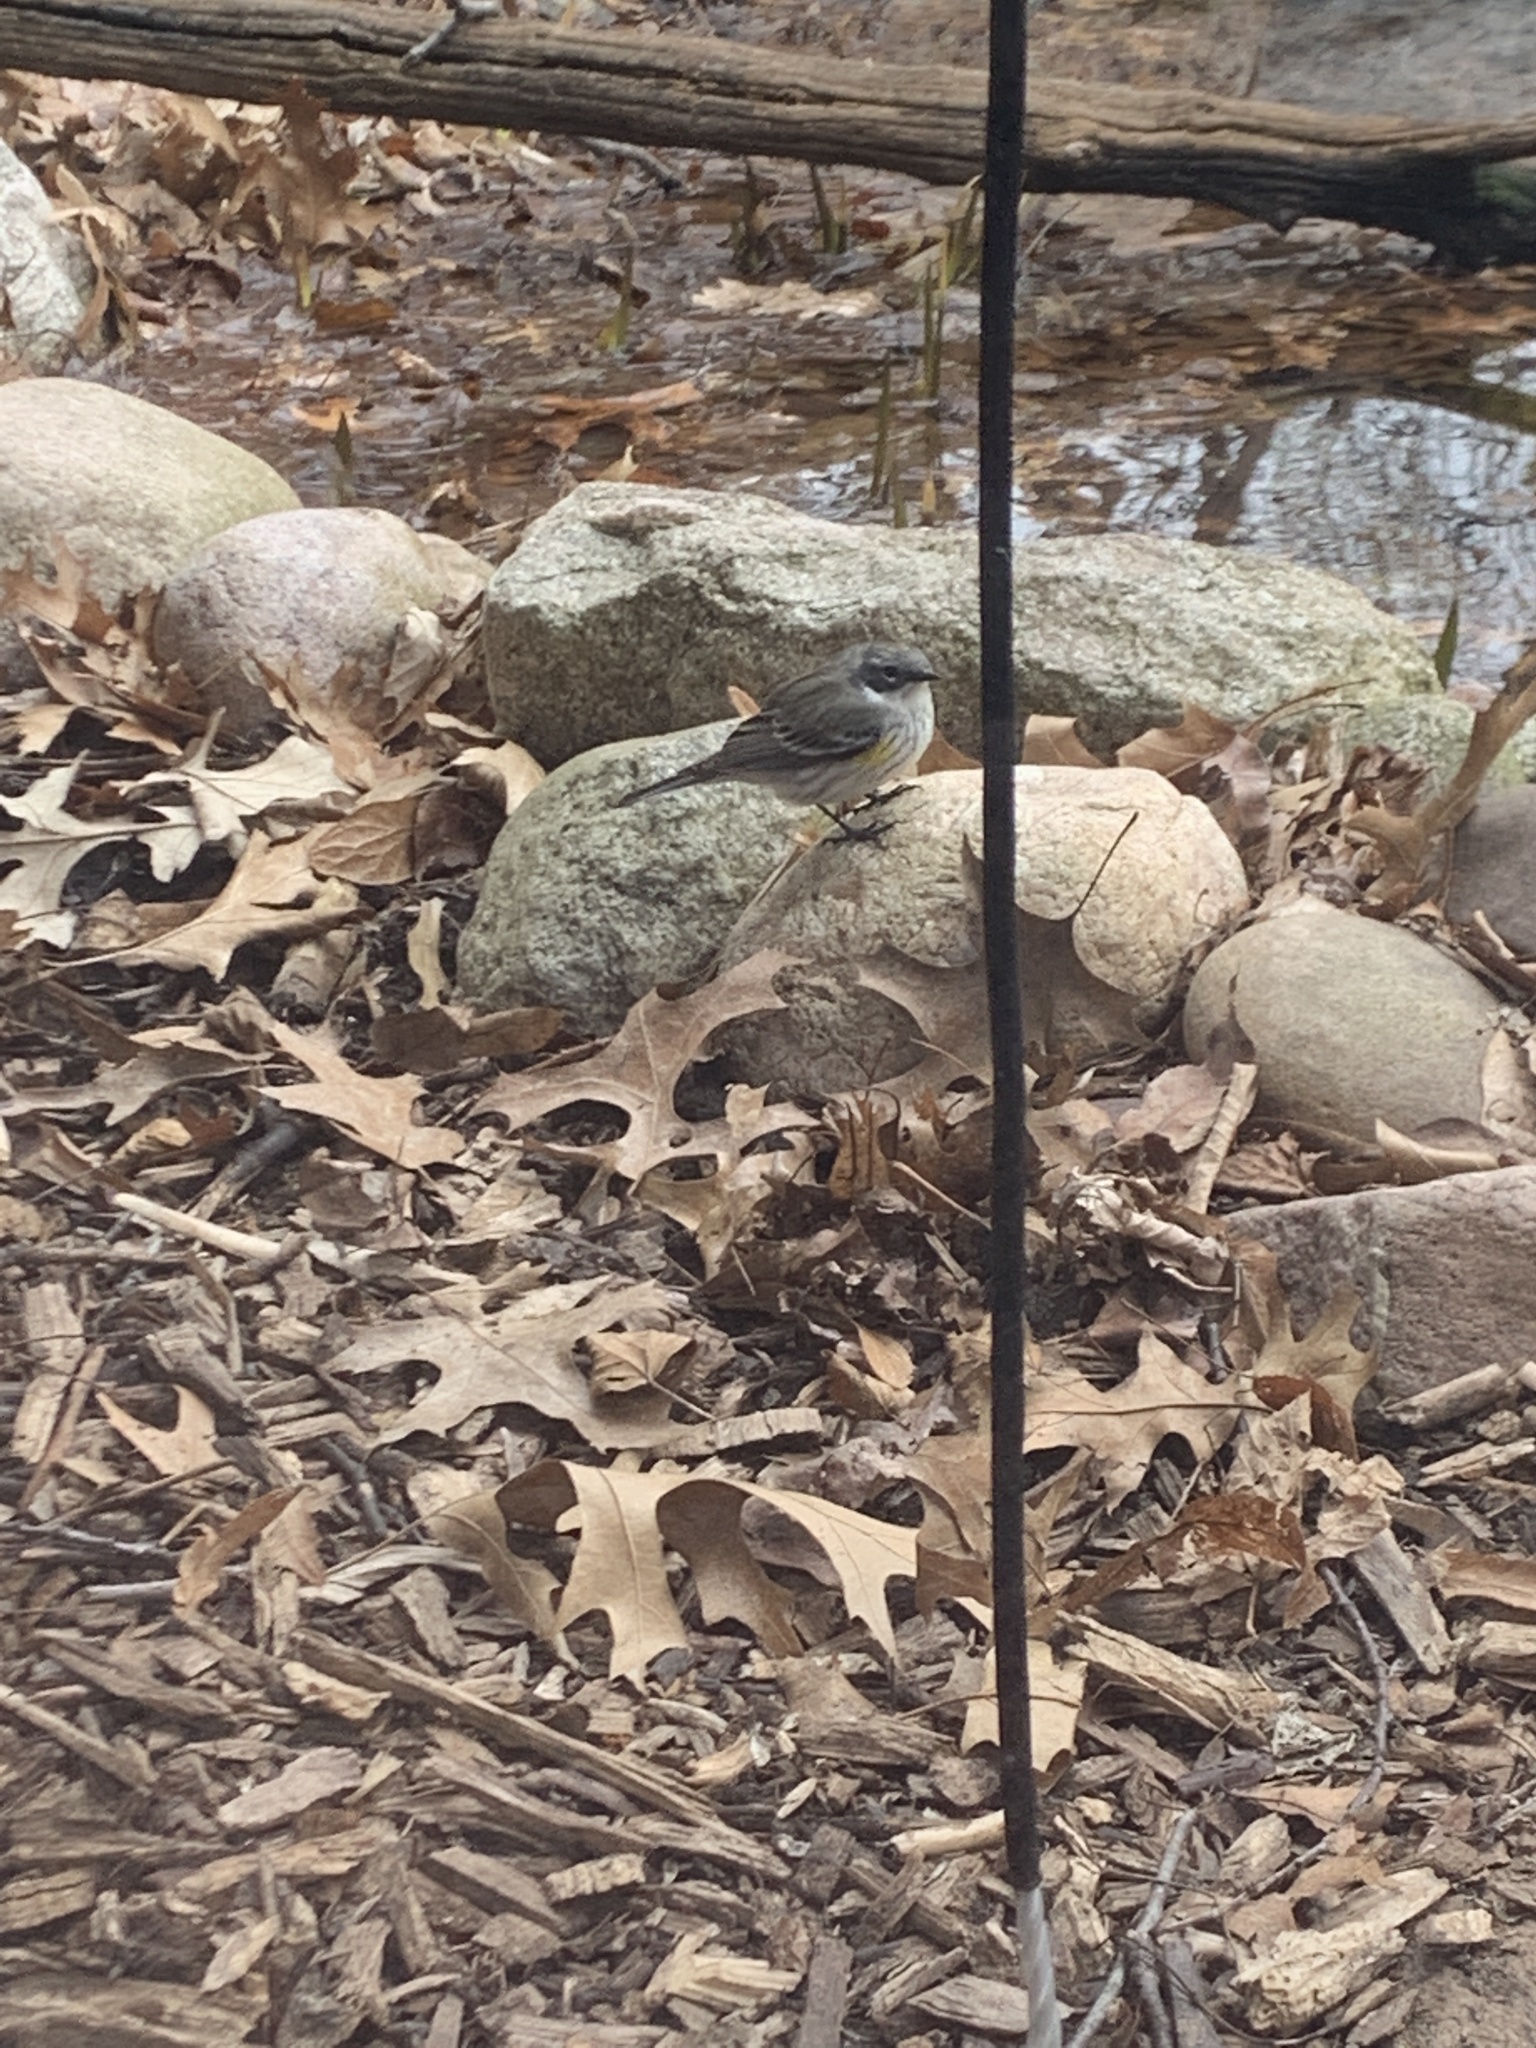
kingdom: Animalia
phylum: Chordata
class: Aves
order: Passeriformes
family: Parulidae
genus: Setophaga
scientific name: Setophaga coronata
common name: Myrtle warbler
